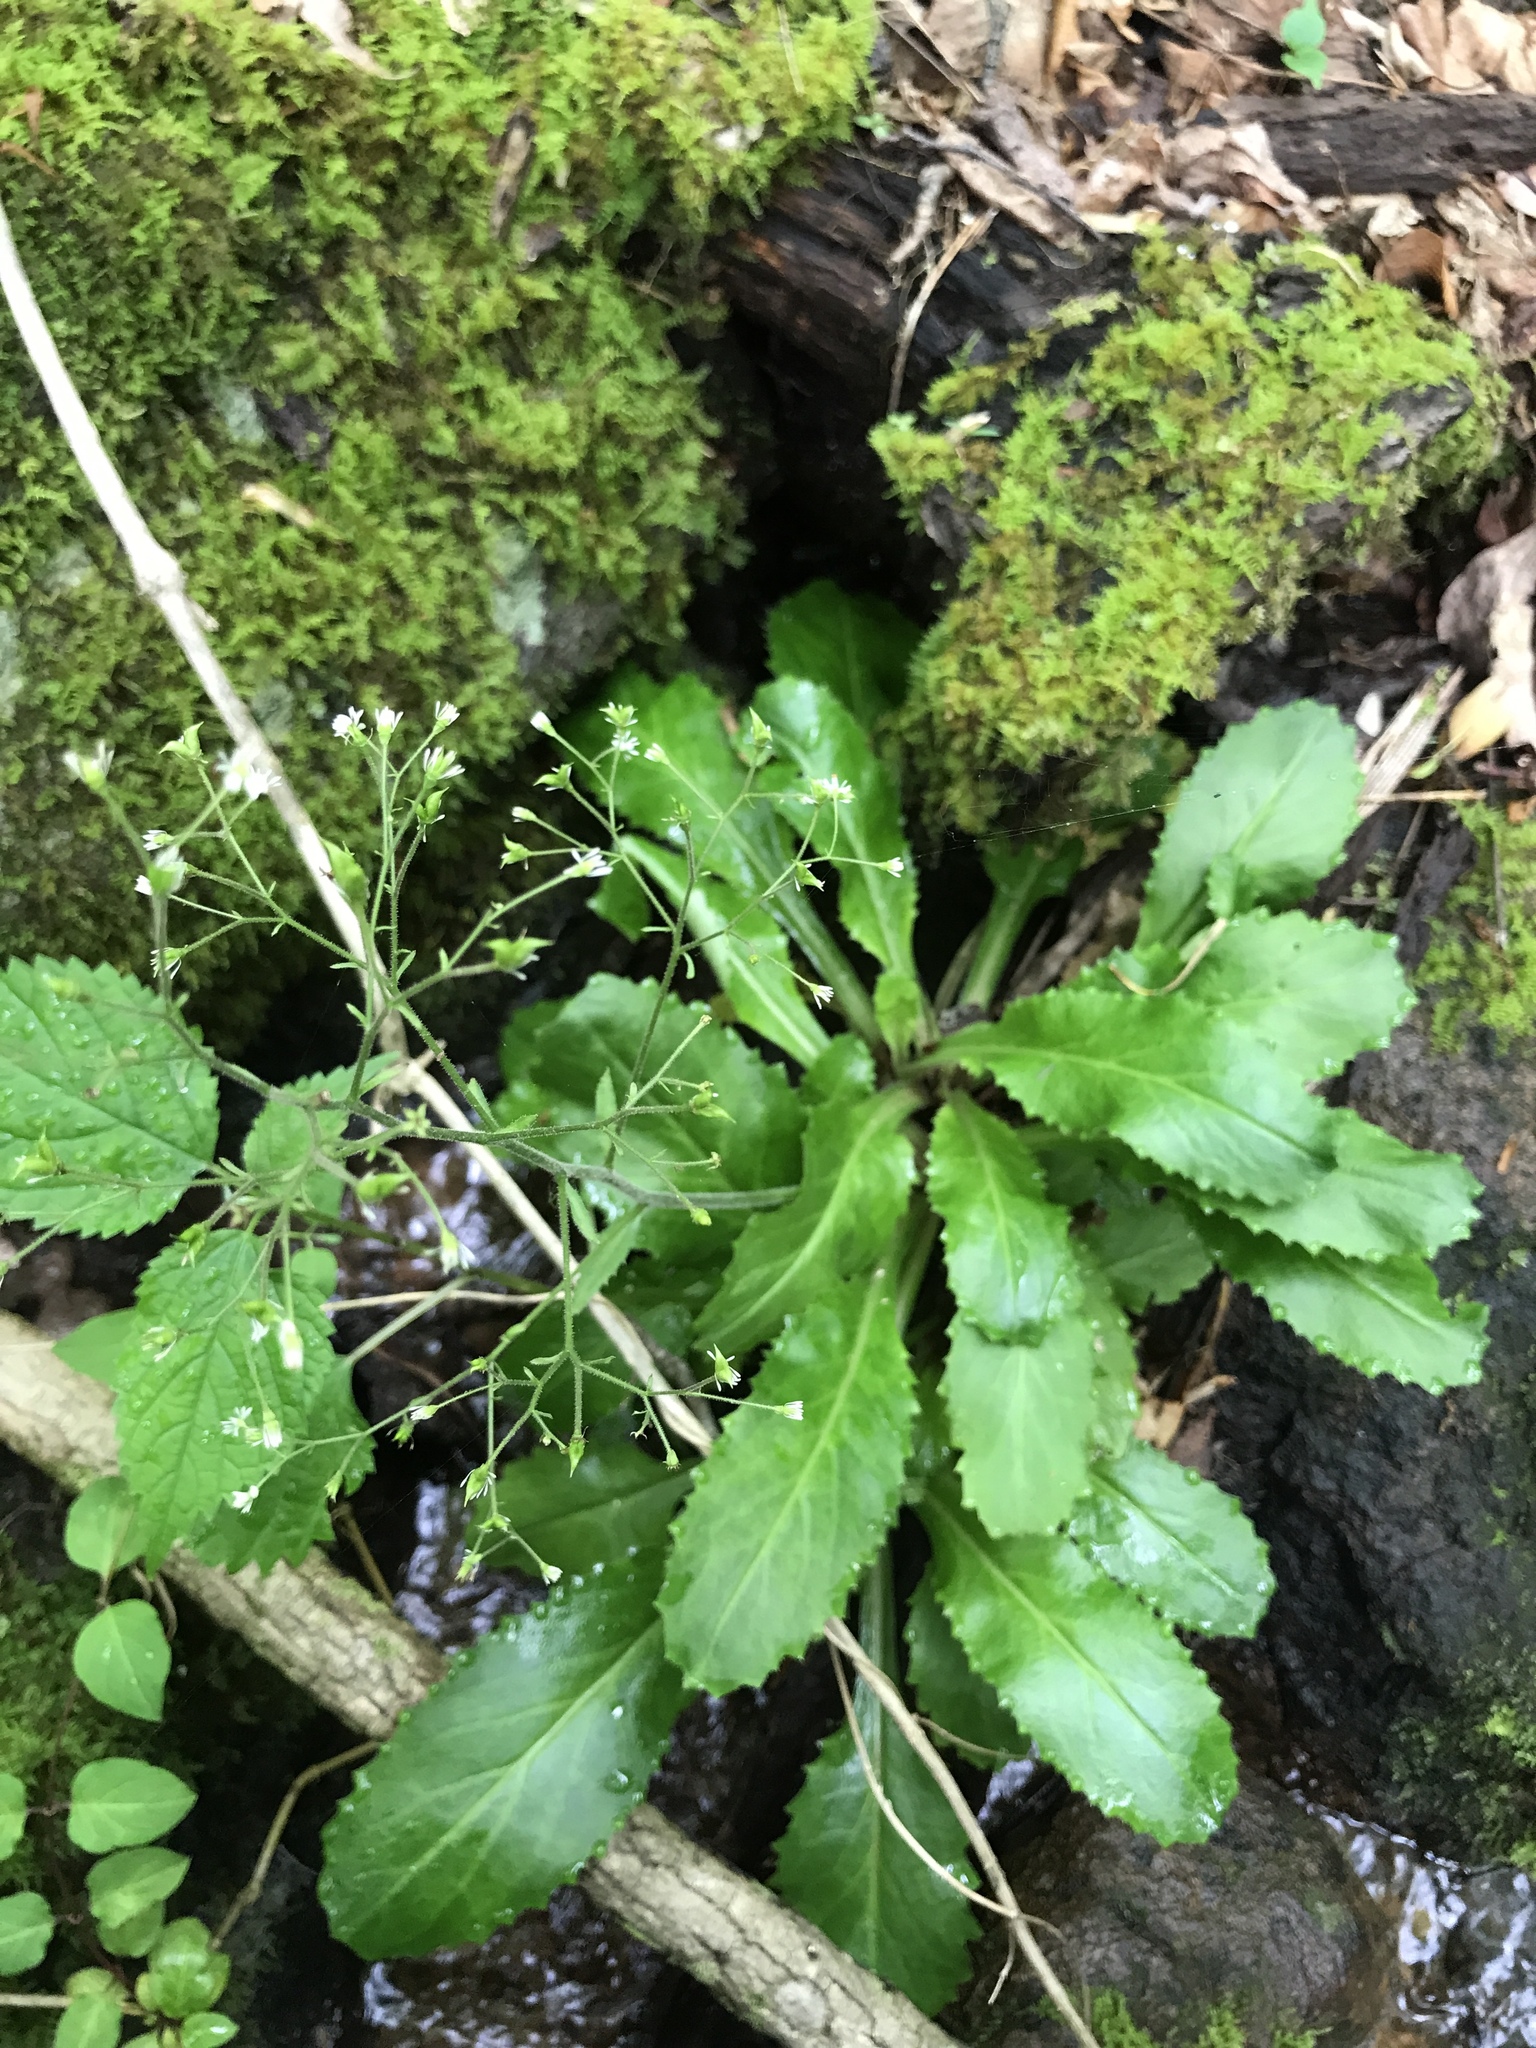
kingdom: Plantae
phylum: Tracheophyta
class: Magnoliopsida
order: Saxifragales
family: Saxifragaceae
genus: Micranthes
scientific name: Micranthes micranthidifolia
